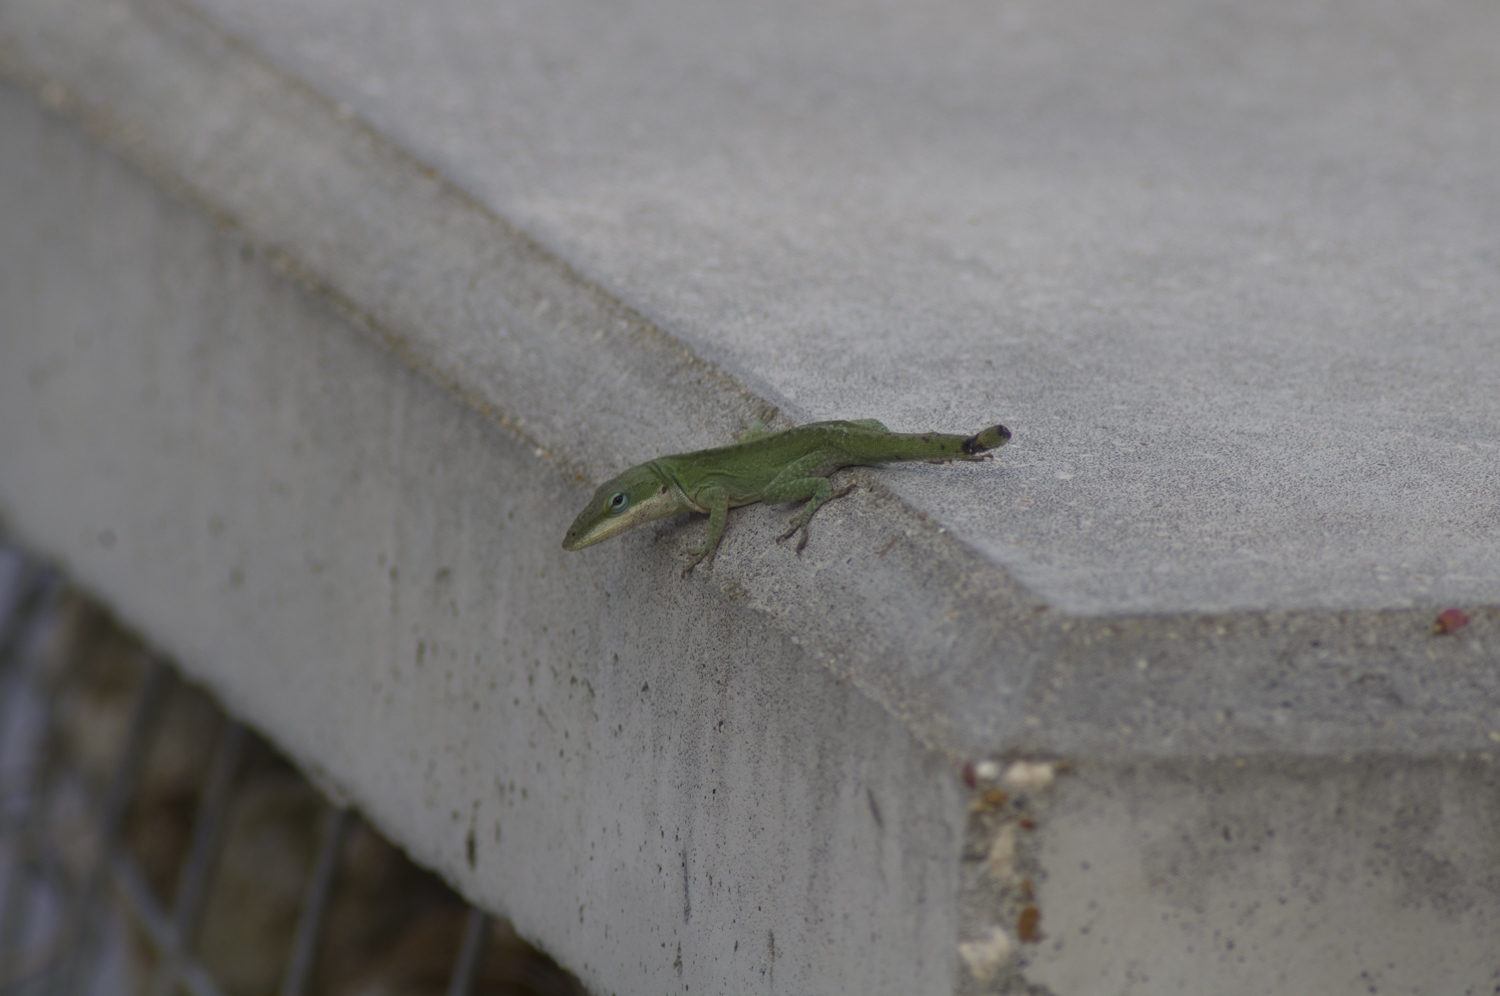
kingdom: Animalia
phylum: Chordata
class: Squamata
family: Dactyloidae
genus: Anolis
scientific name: Anolis carolinensis
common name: Green anole
